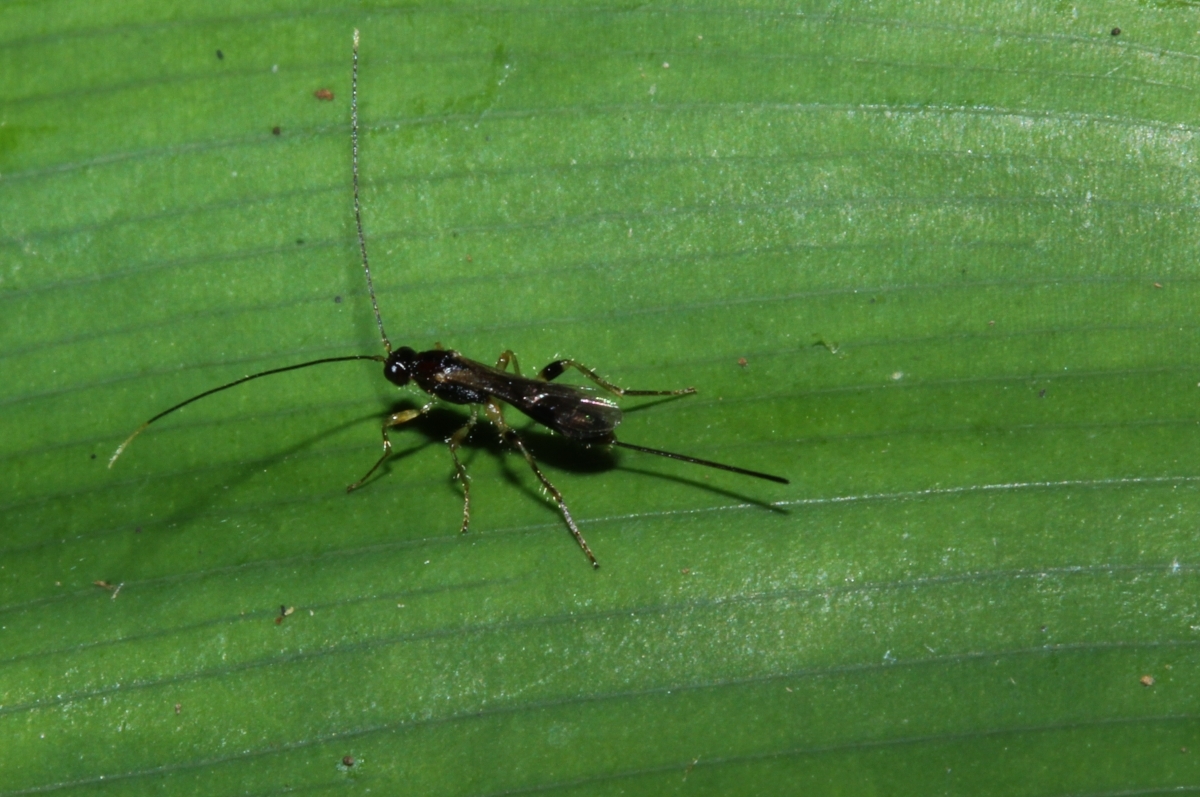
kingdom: Animalia
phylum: Arthropoda
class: Insecta
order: Hymenoptera
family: Braconidae
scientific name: Braconidae
